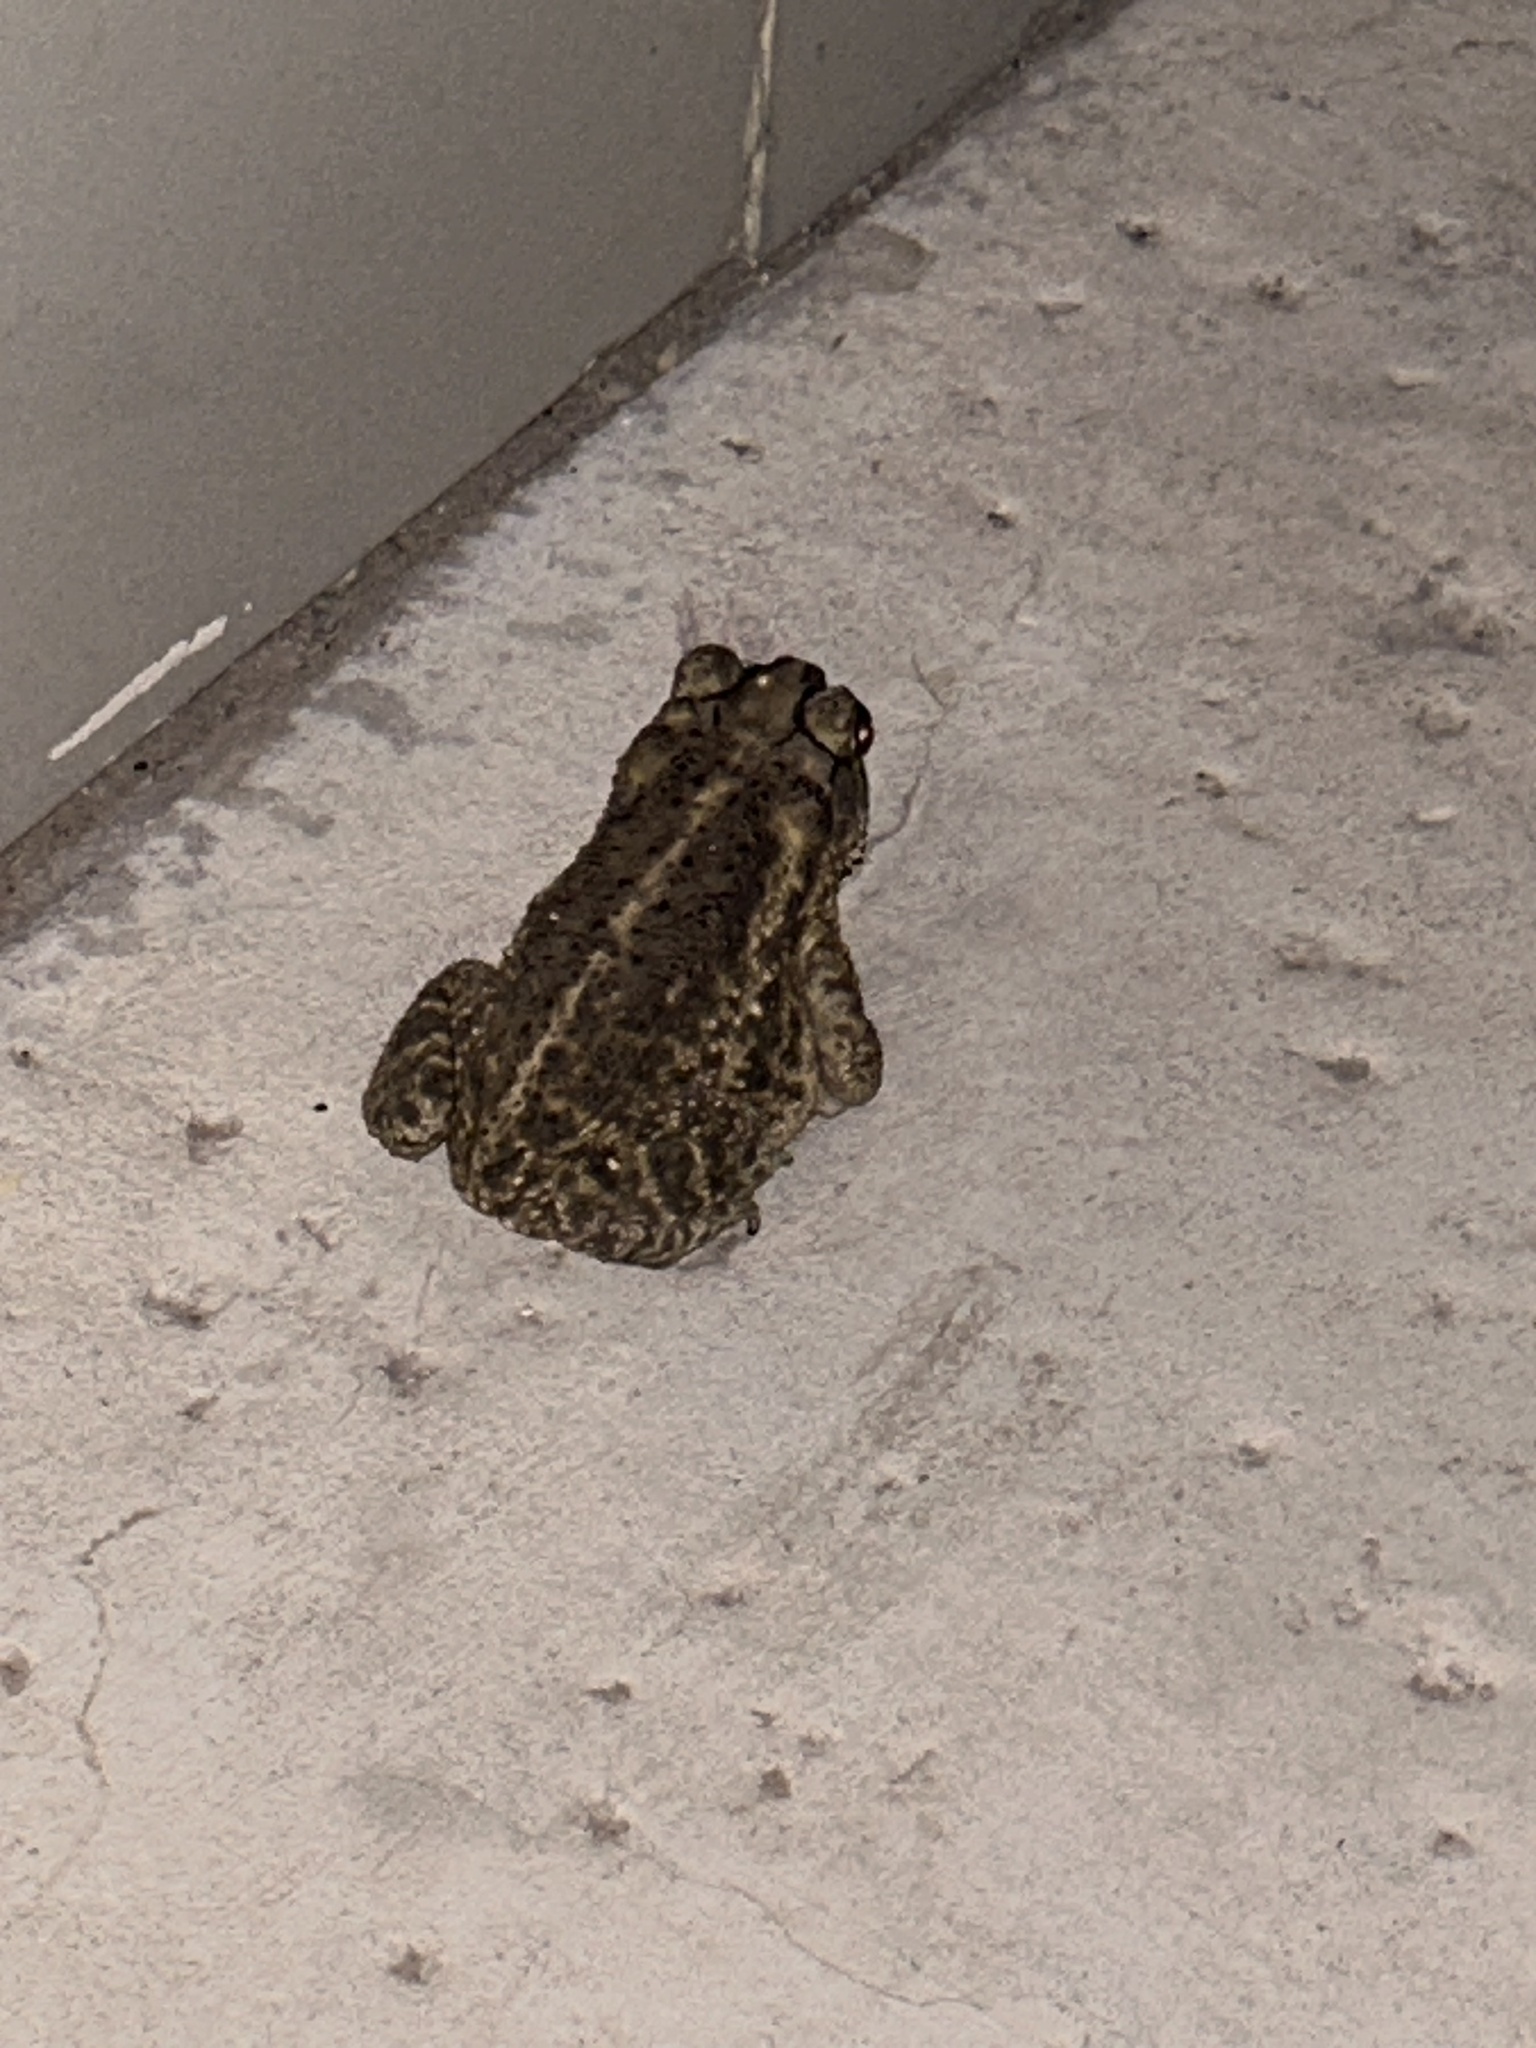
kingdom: Animalia
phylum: Chordata
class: Amphibia
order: Anura
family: Bufonidae
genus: Incilius
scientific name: Incilius mazatlanensis
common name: Sinaloa toad
